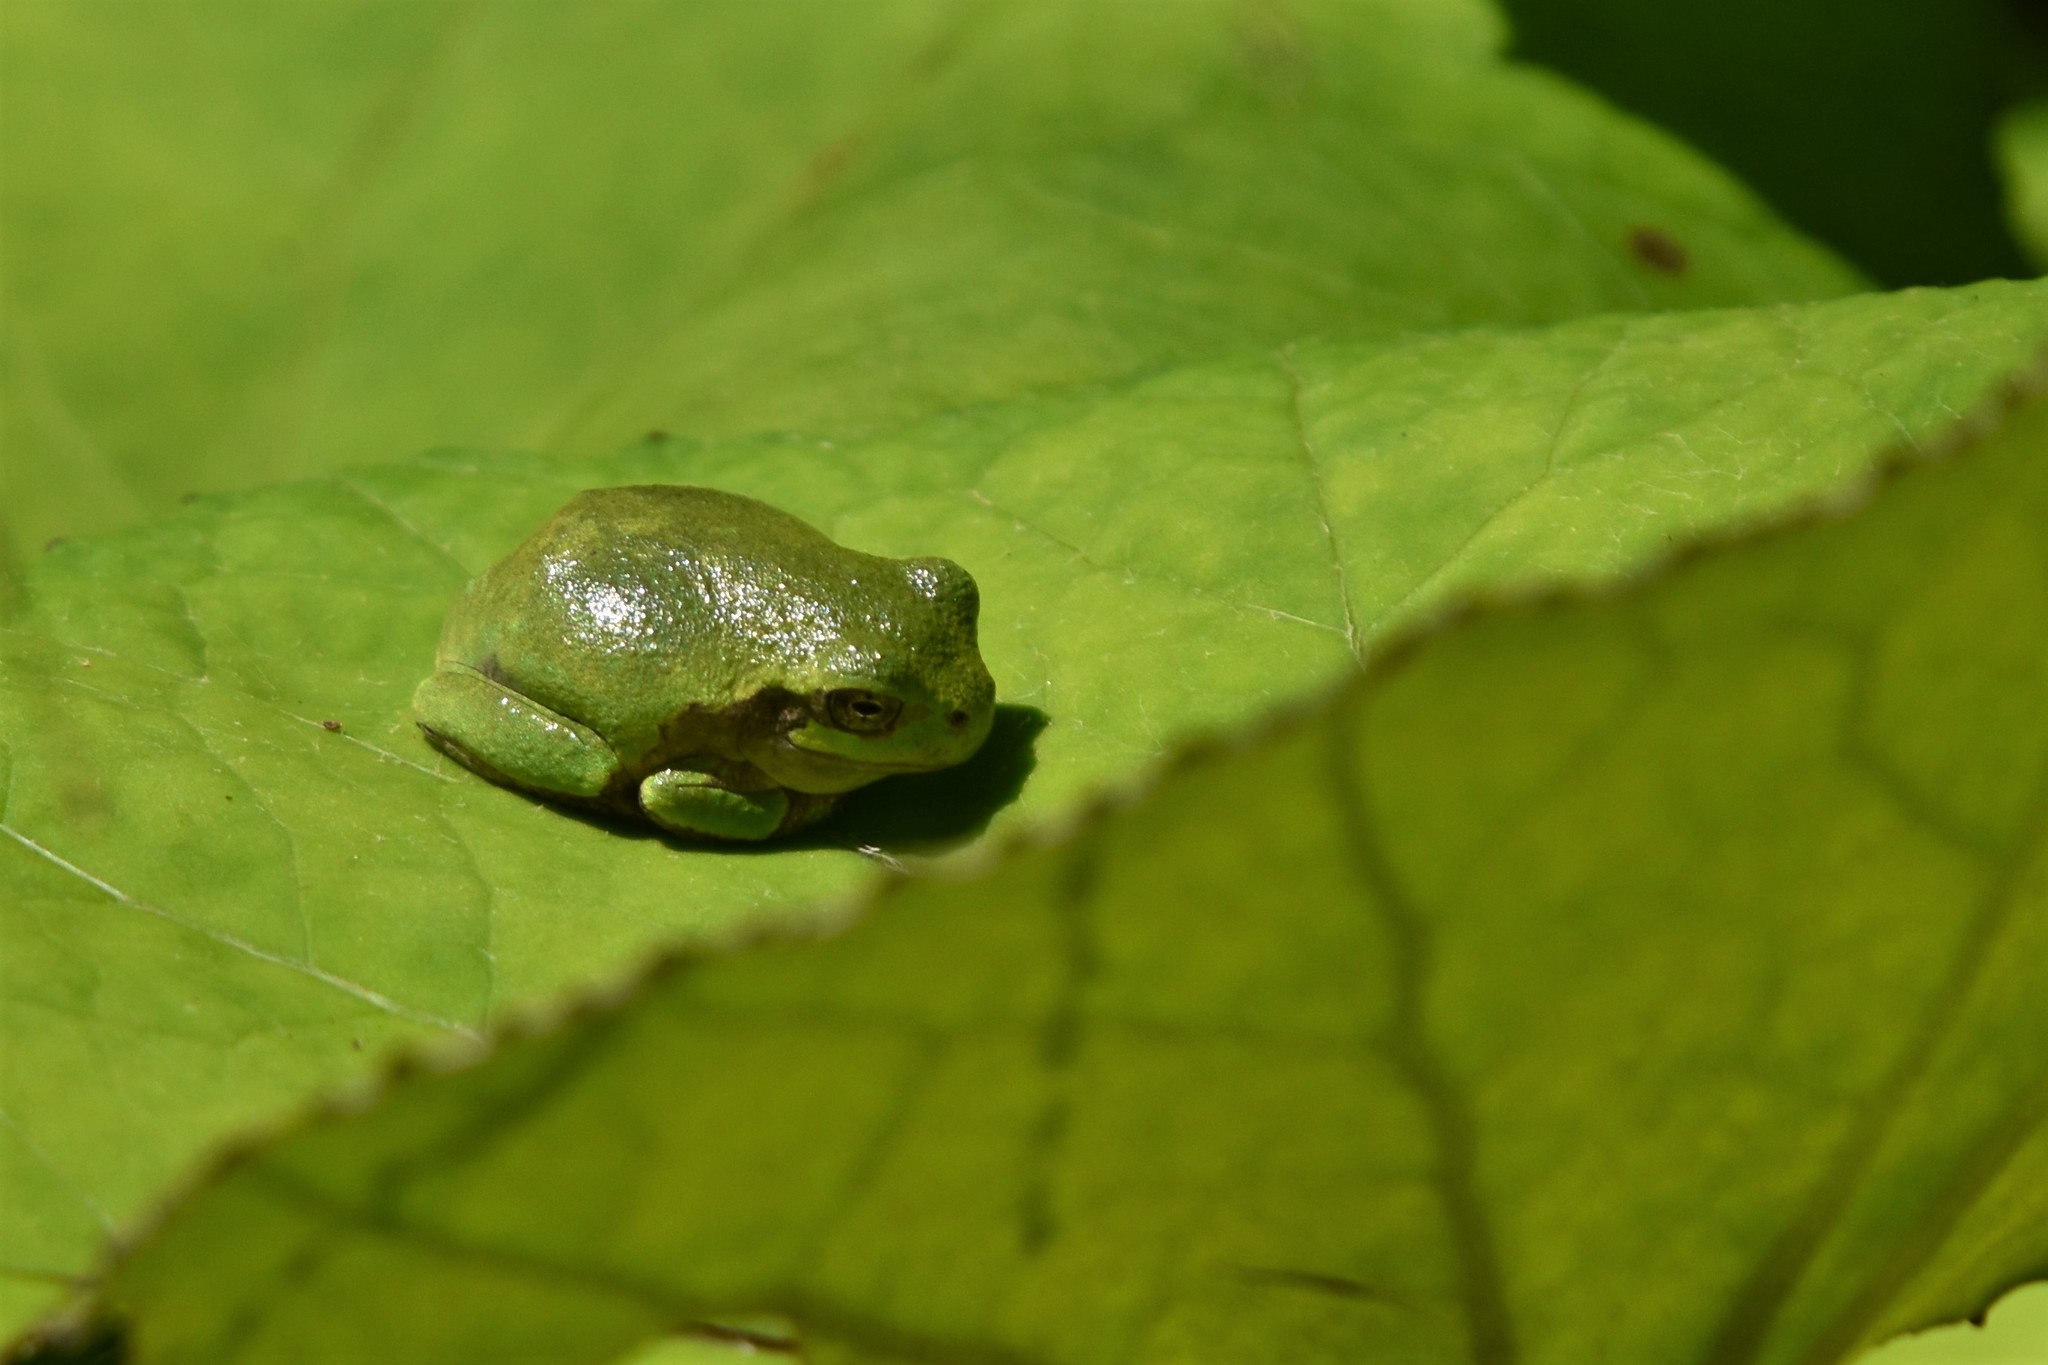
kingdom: Animalia
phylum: Chordata
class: Amphibia
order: Anura
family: Hylidae
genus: Dryophytes
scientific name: Dryophytes versicolor
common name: Gray treefrog
